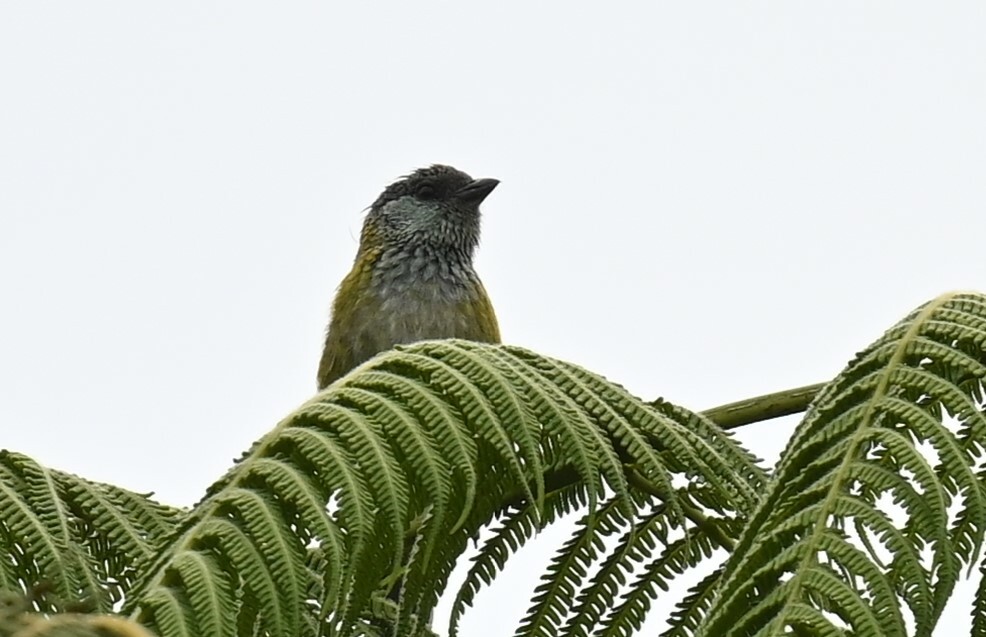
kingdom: Animalia
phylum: Chordata
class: Aves
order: Passeriformes
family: Thraupidae
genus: Stilpnia
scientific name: Stilpnia heinei
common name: Black-capped tanager
